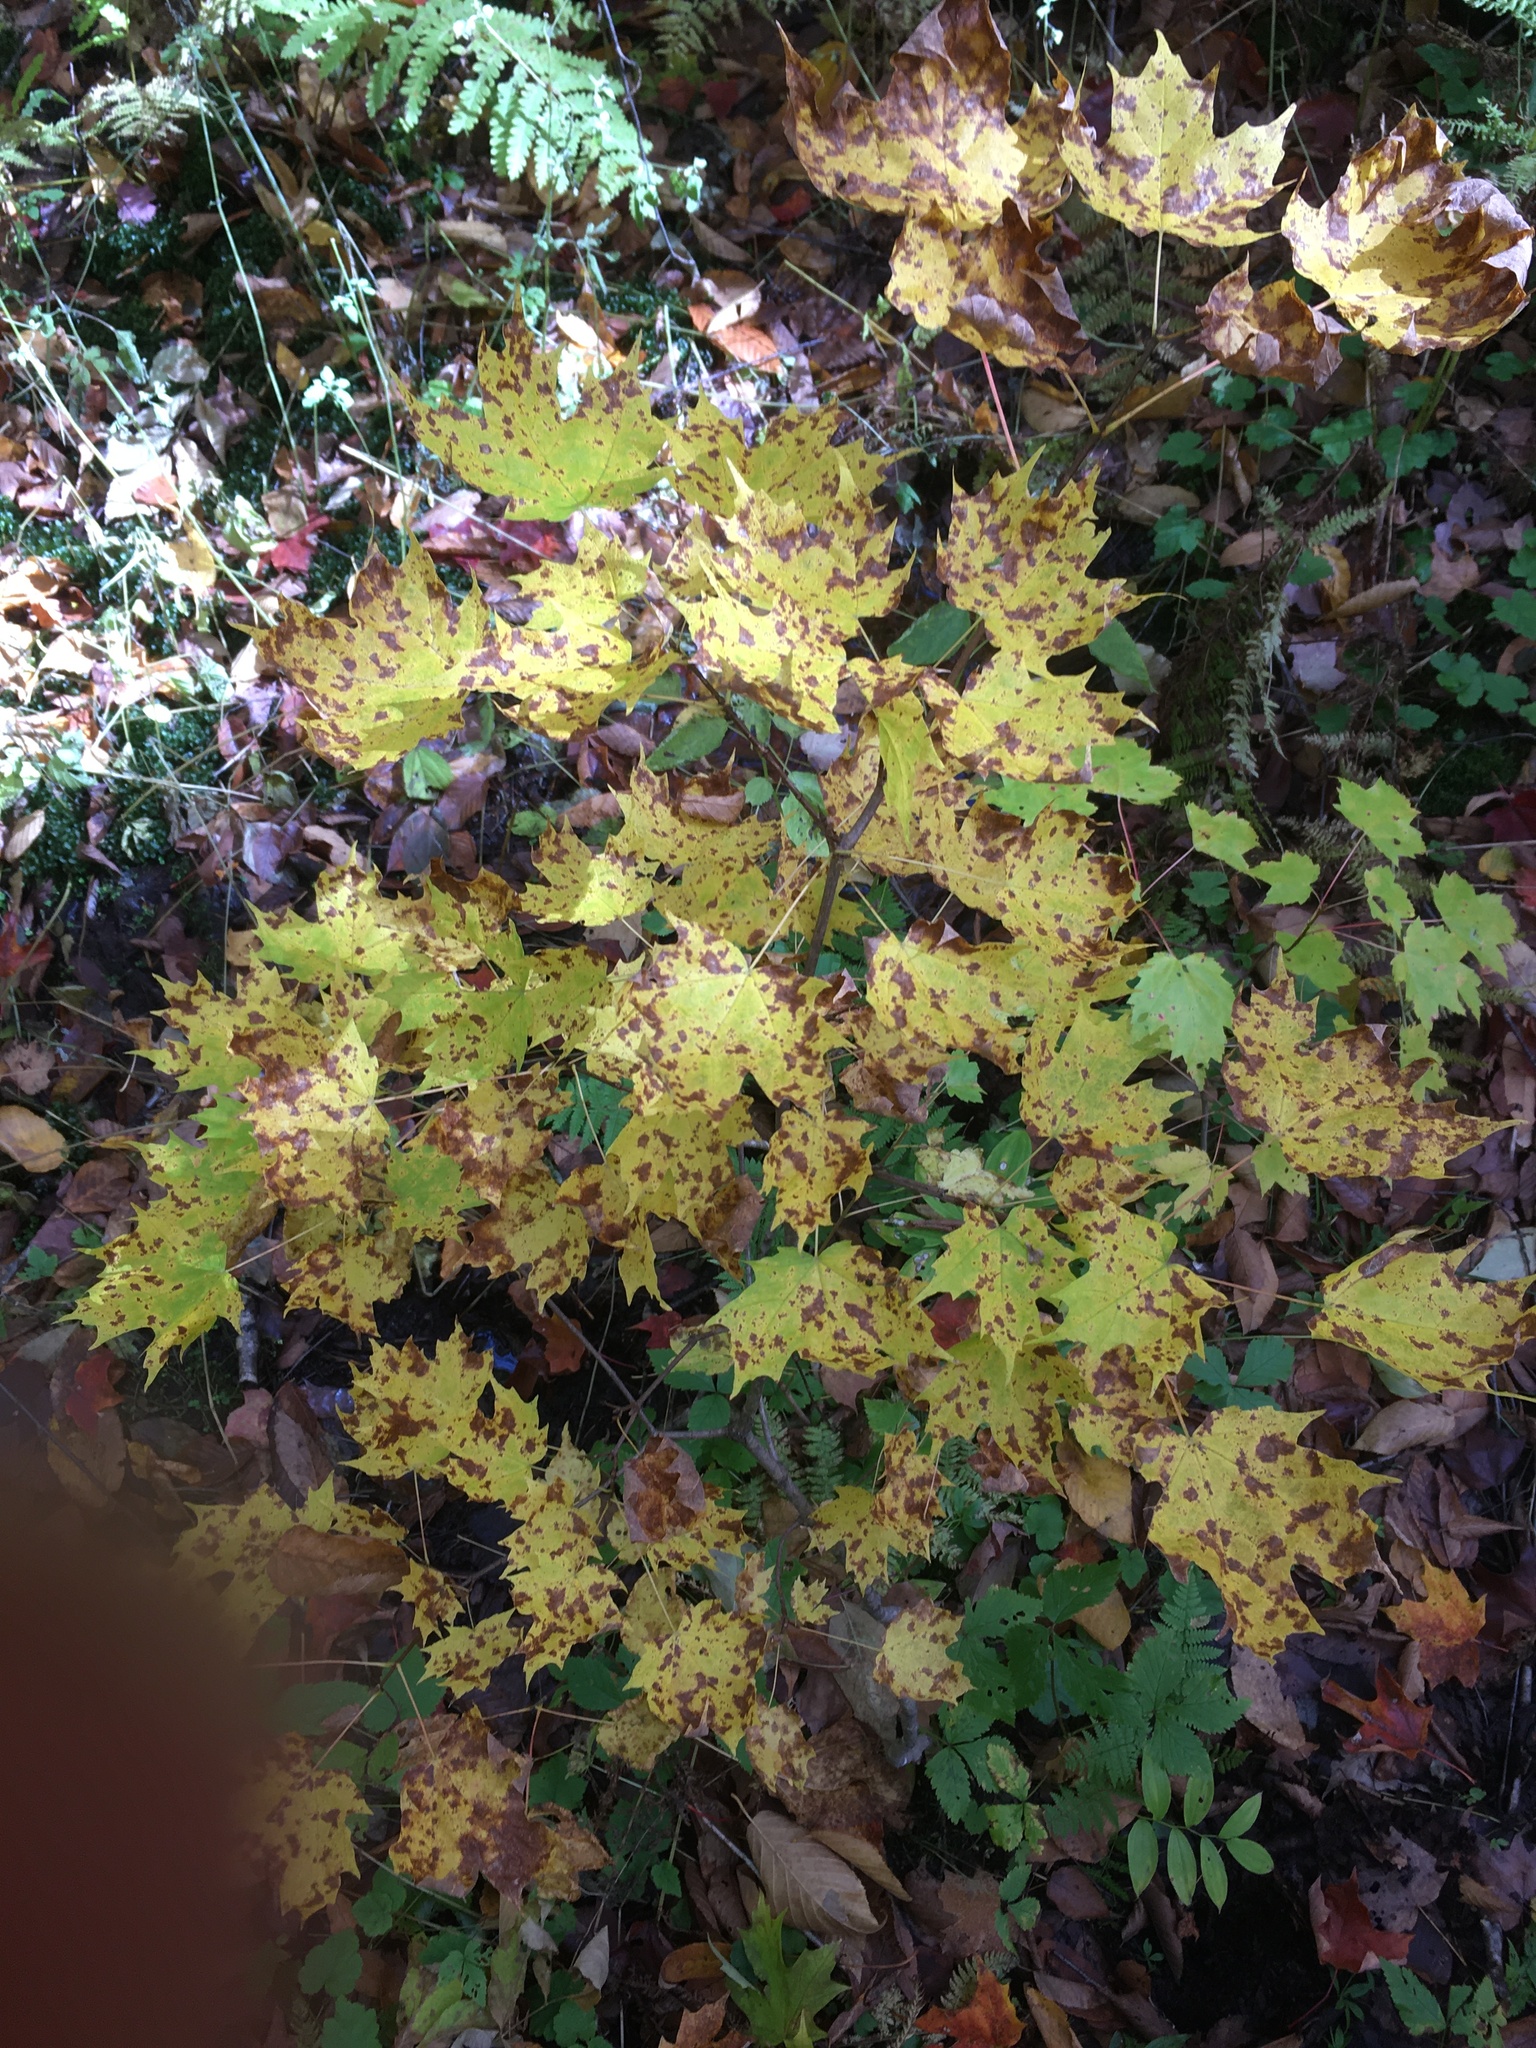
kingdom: Plantae
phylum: Tracheophyta
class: Magnoliopsida
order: Sapindales
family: Sapindaceae
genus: Acer
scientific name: Acer saccharum
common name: Sugar maple
